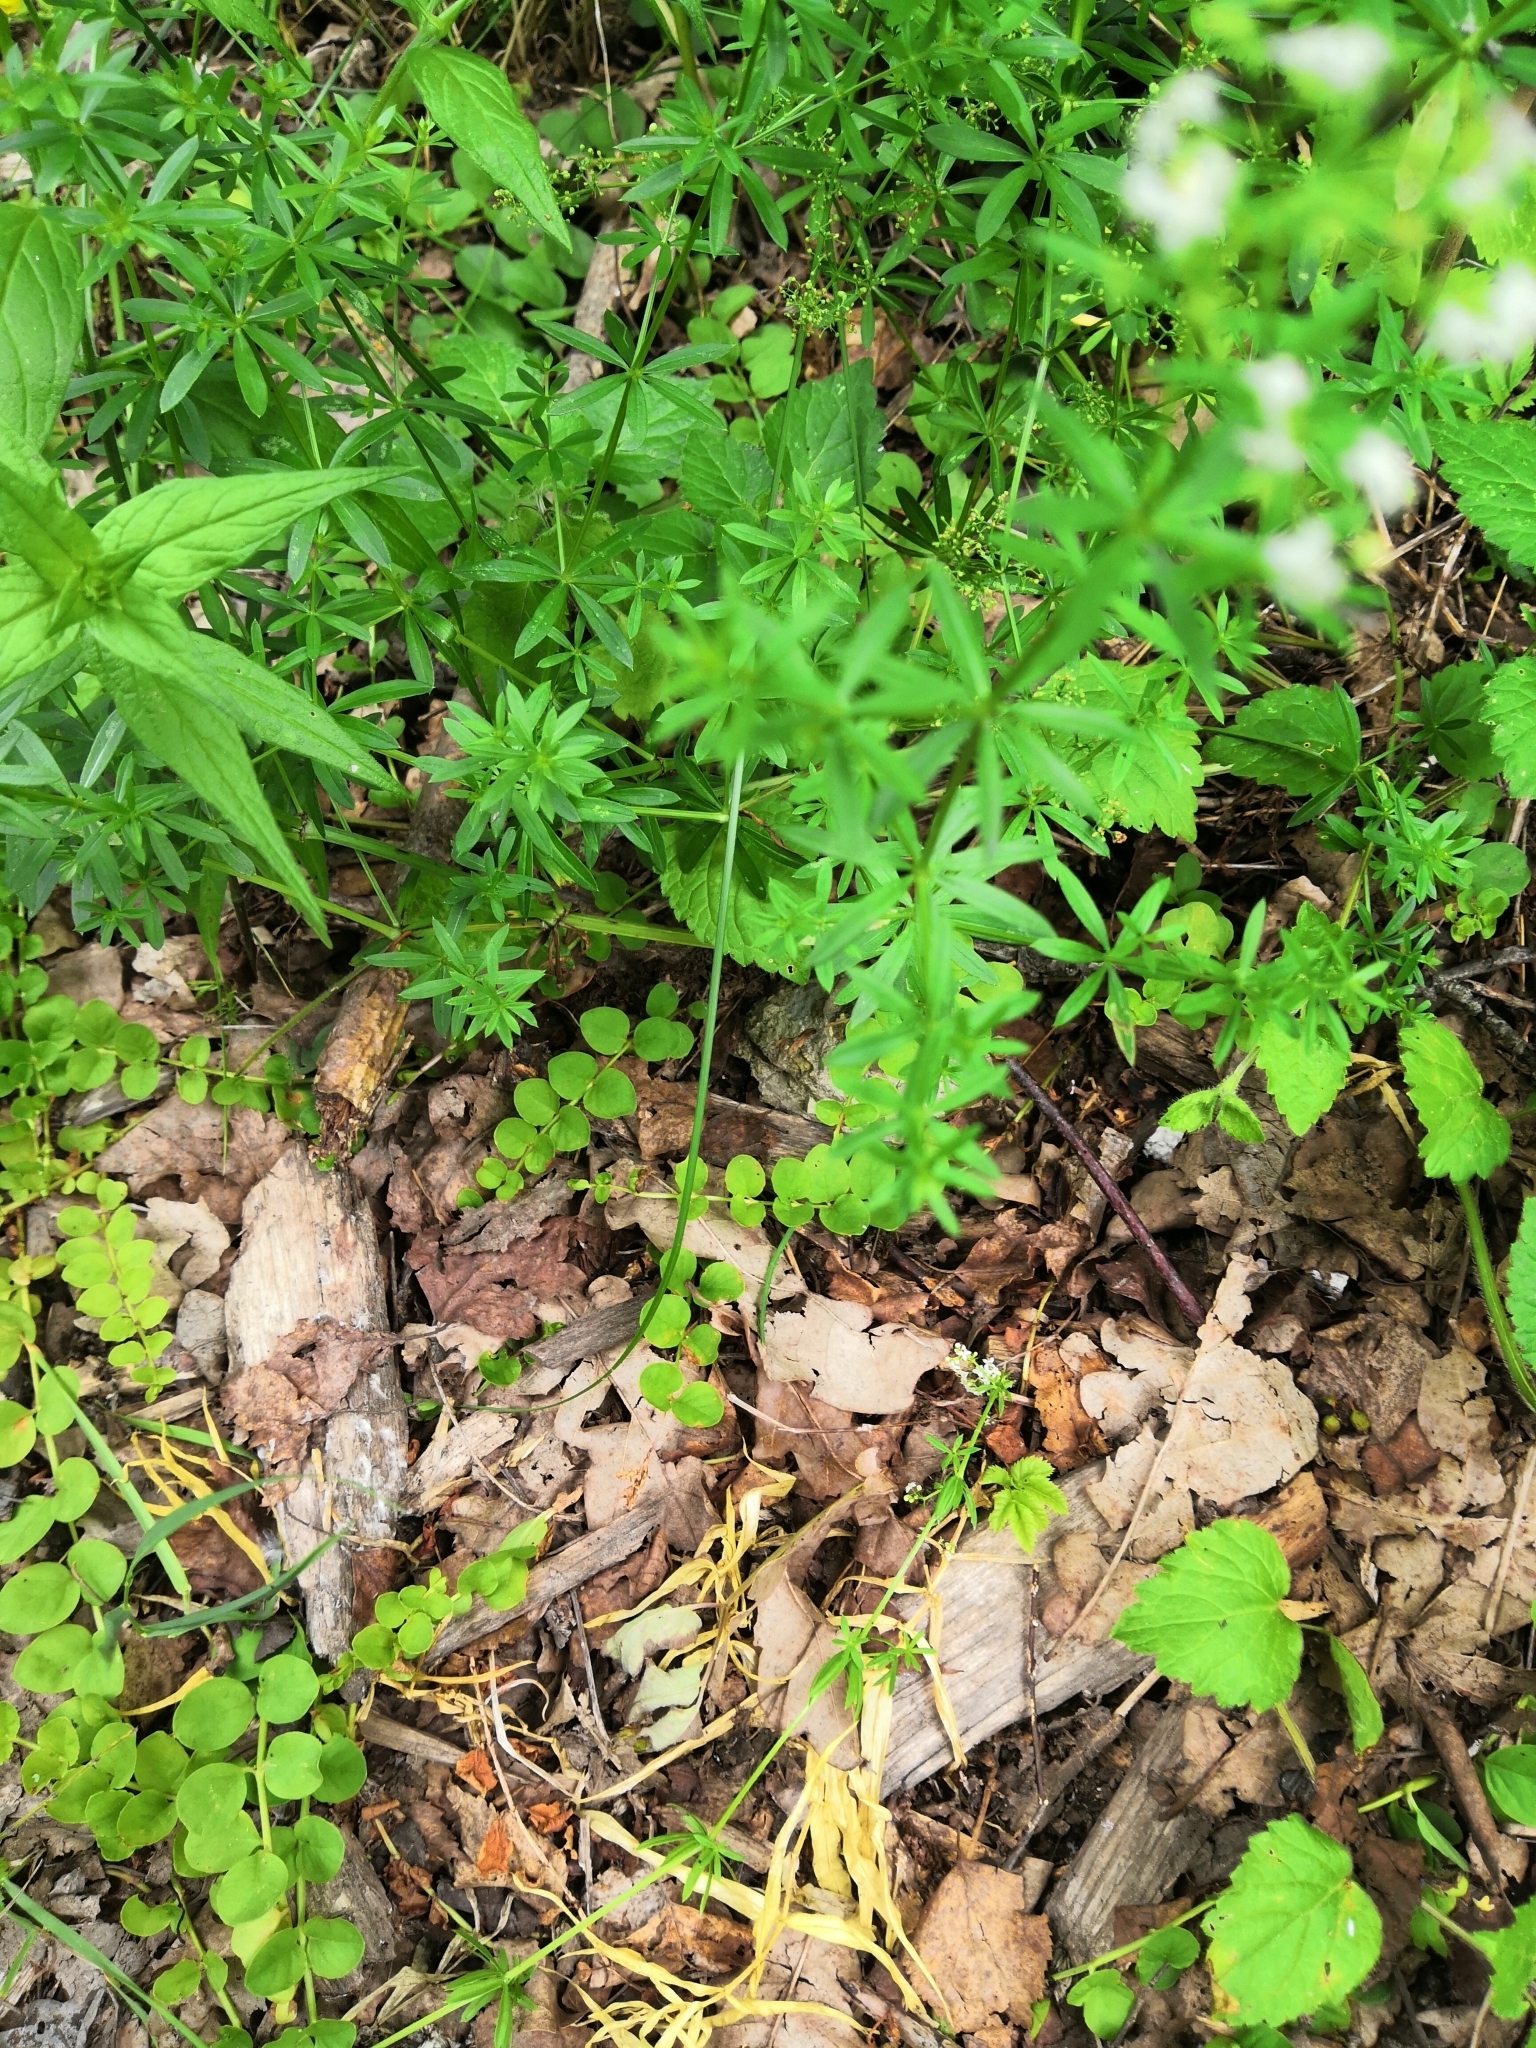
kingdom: Plantae
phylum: Tracheophyta
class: Magnoliopsida
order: Gentianales
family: Rubiaceae
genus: Galium
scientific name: Galium mollugo
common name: Hedge bedstraw
